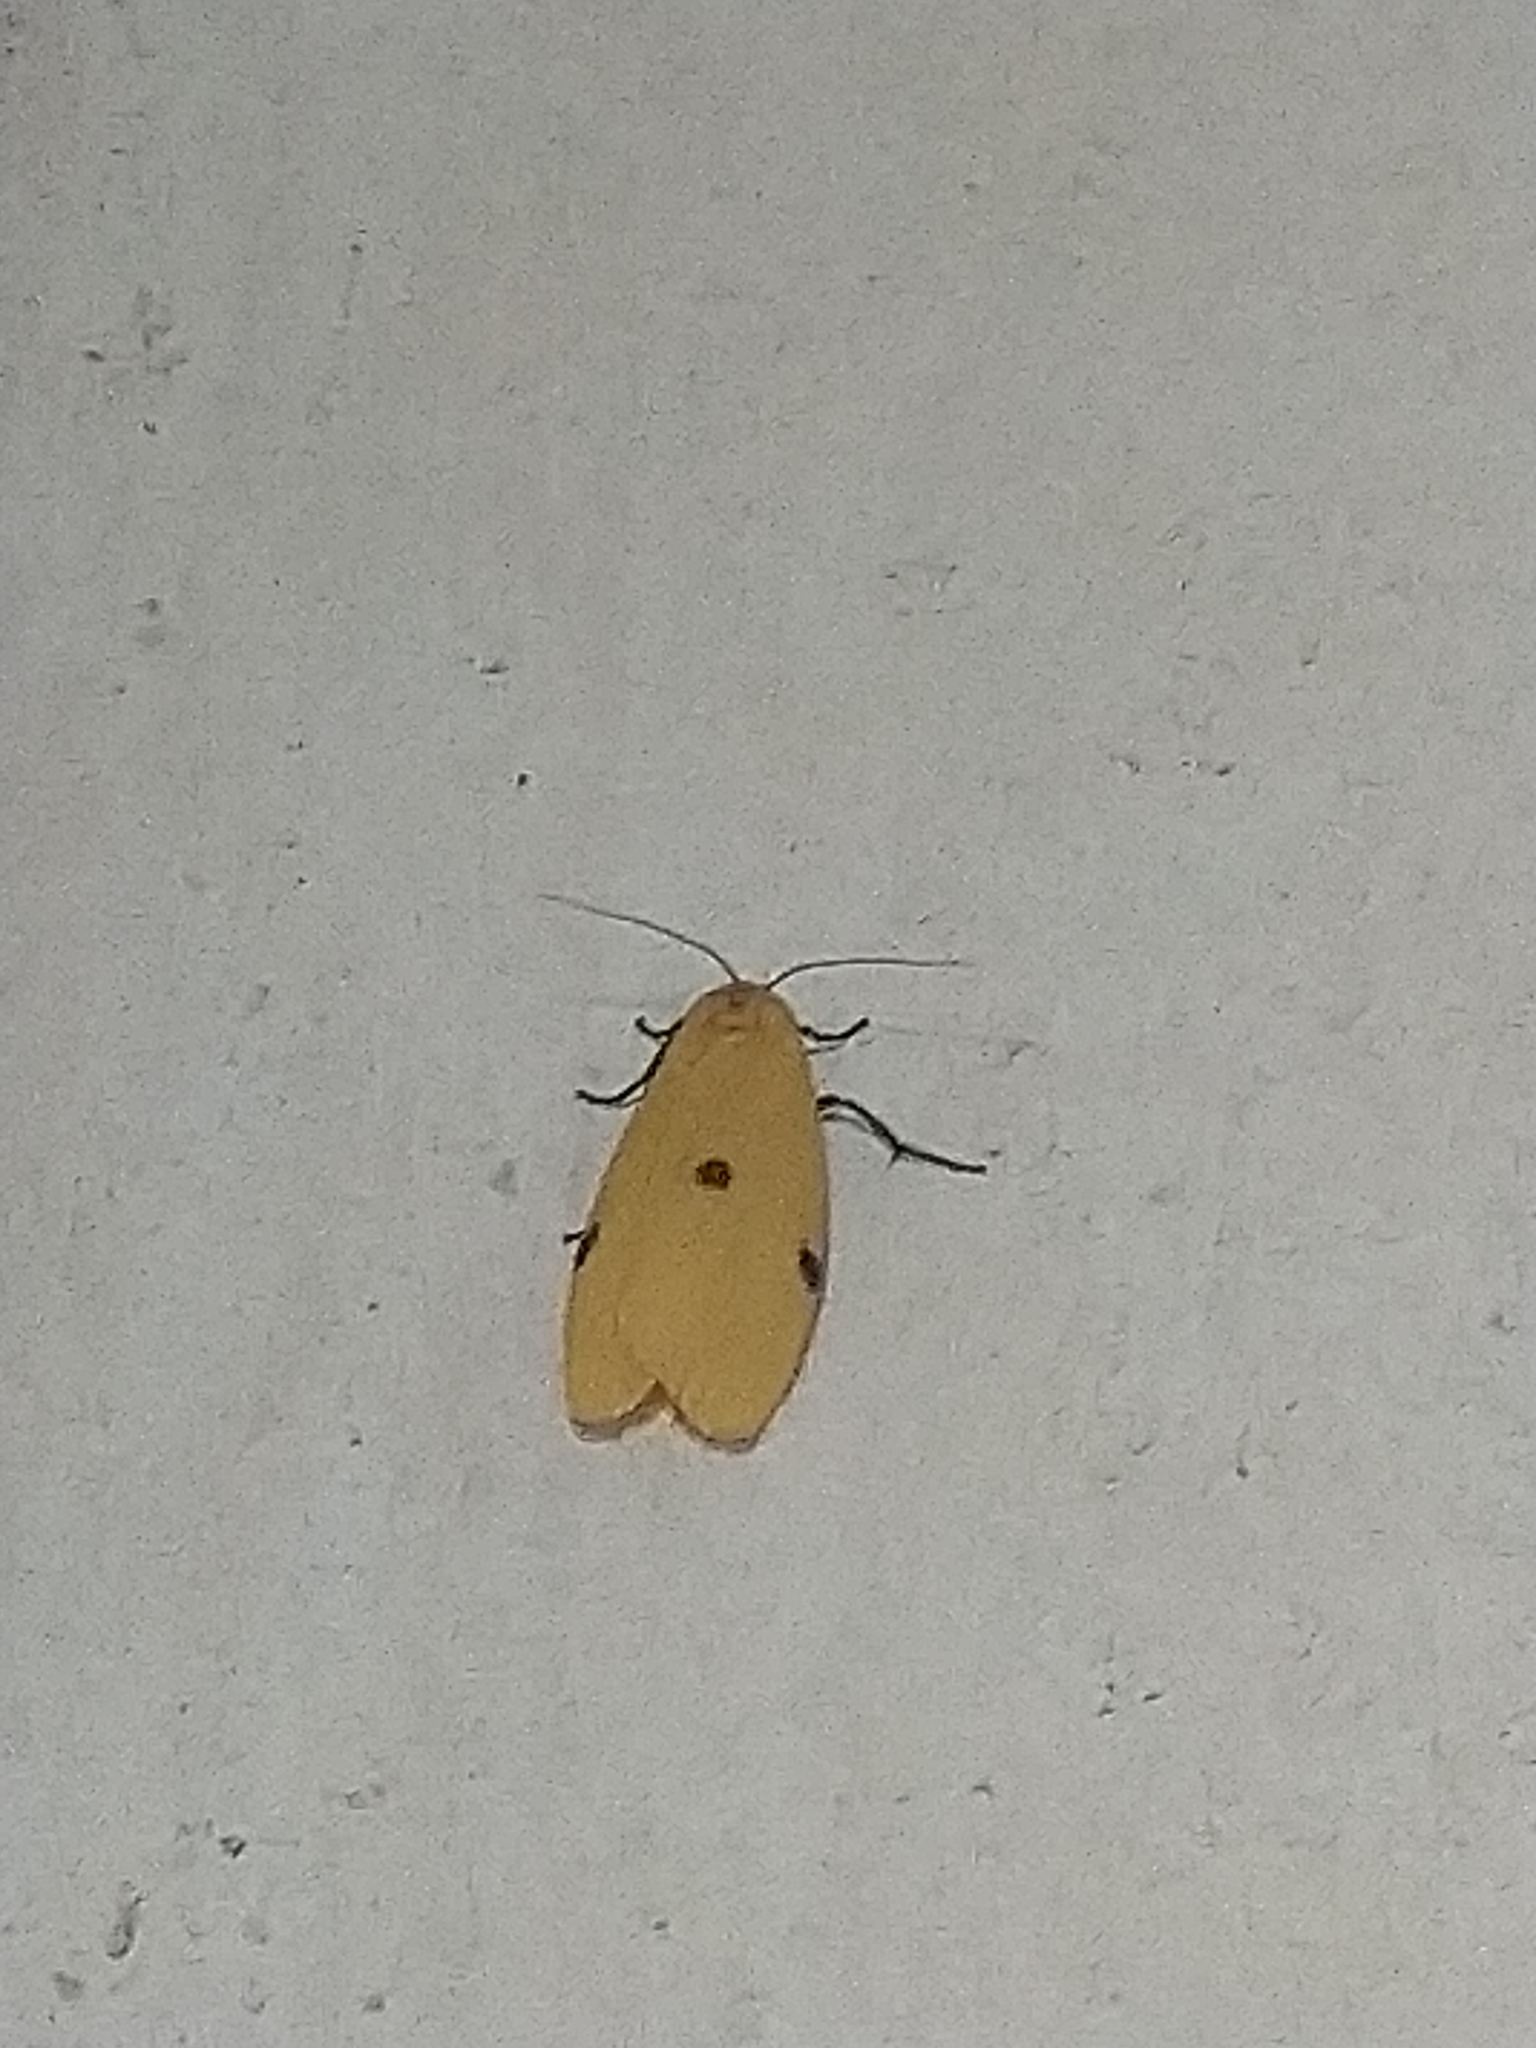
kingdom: Animalia
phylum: Arthropoda
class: Insecta
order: Lepidoptera
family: Erebidae
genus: Lithosia
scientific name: Lithosia quadra
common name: Four-spotted footman
